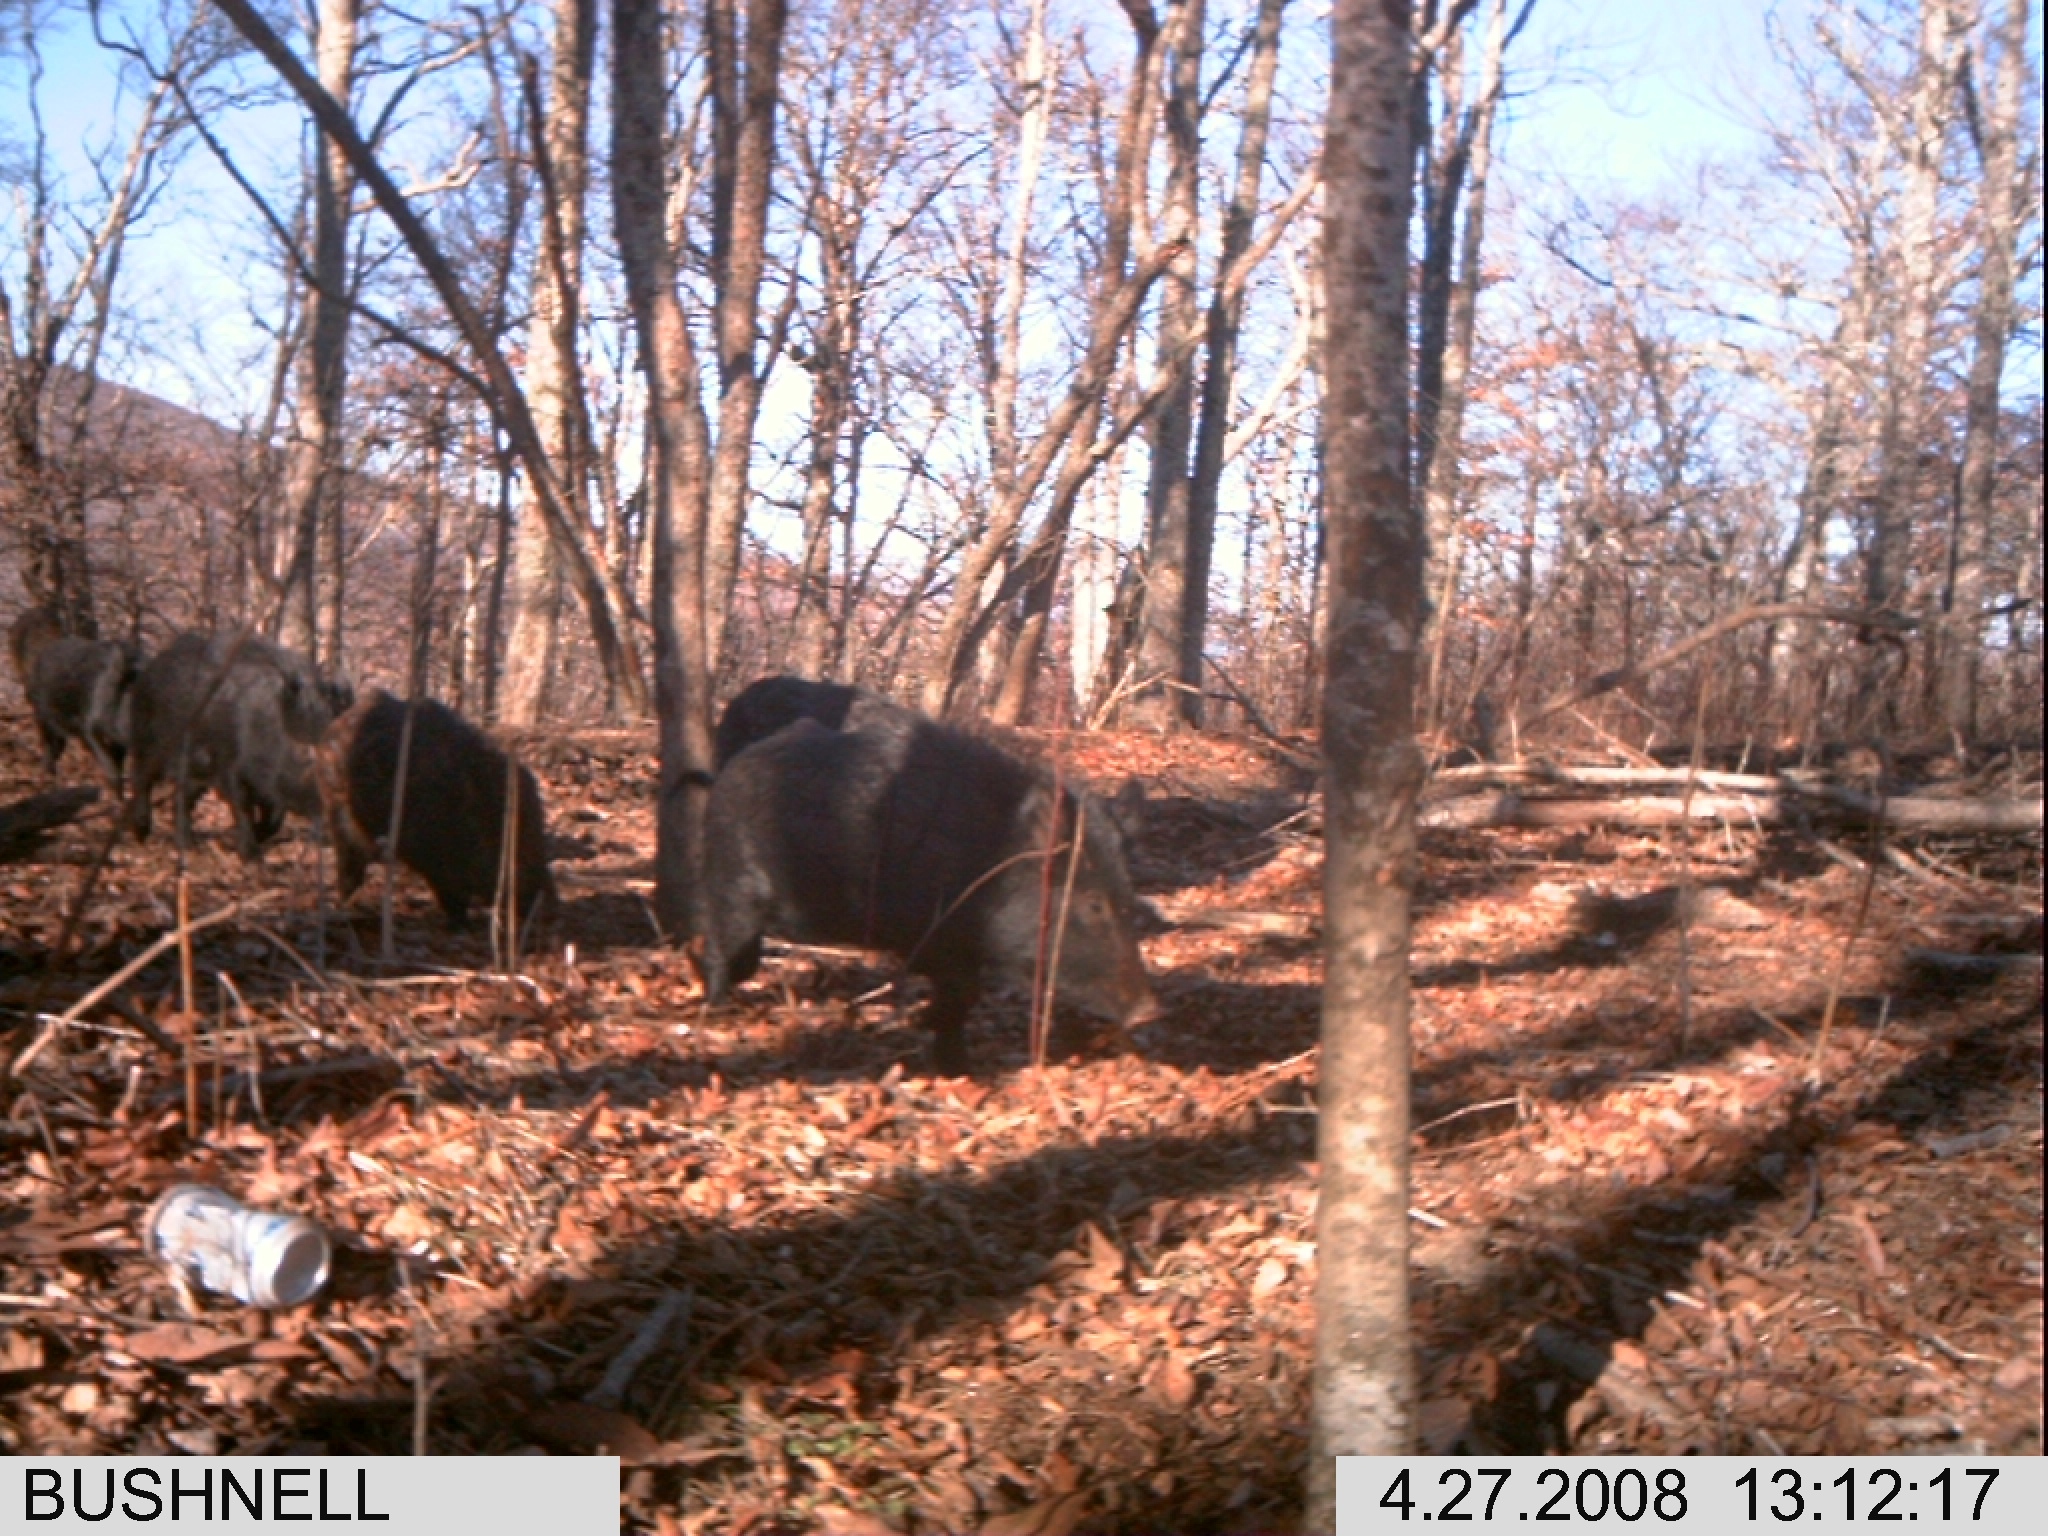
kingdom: Animalia
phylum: Chordata
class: Mammalia
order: Artiodactyla
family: Suidae
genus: Sus
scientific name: Sus scrofa
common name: Wild boar
